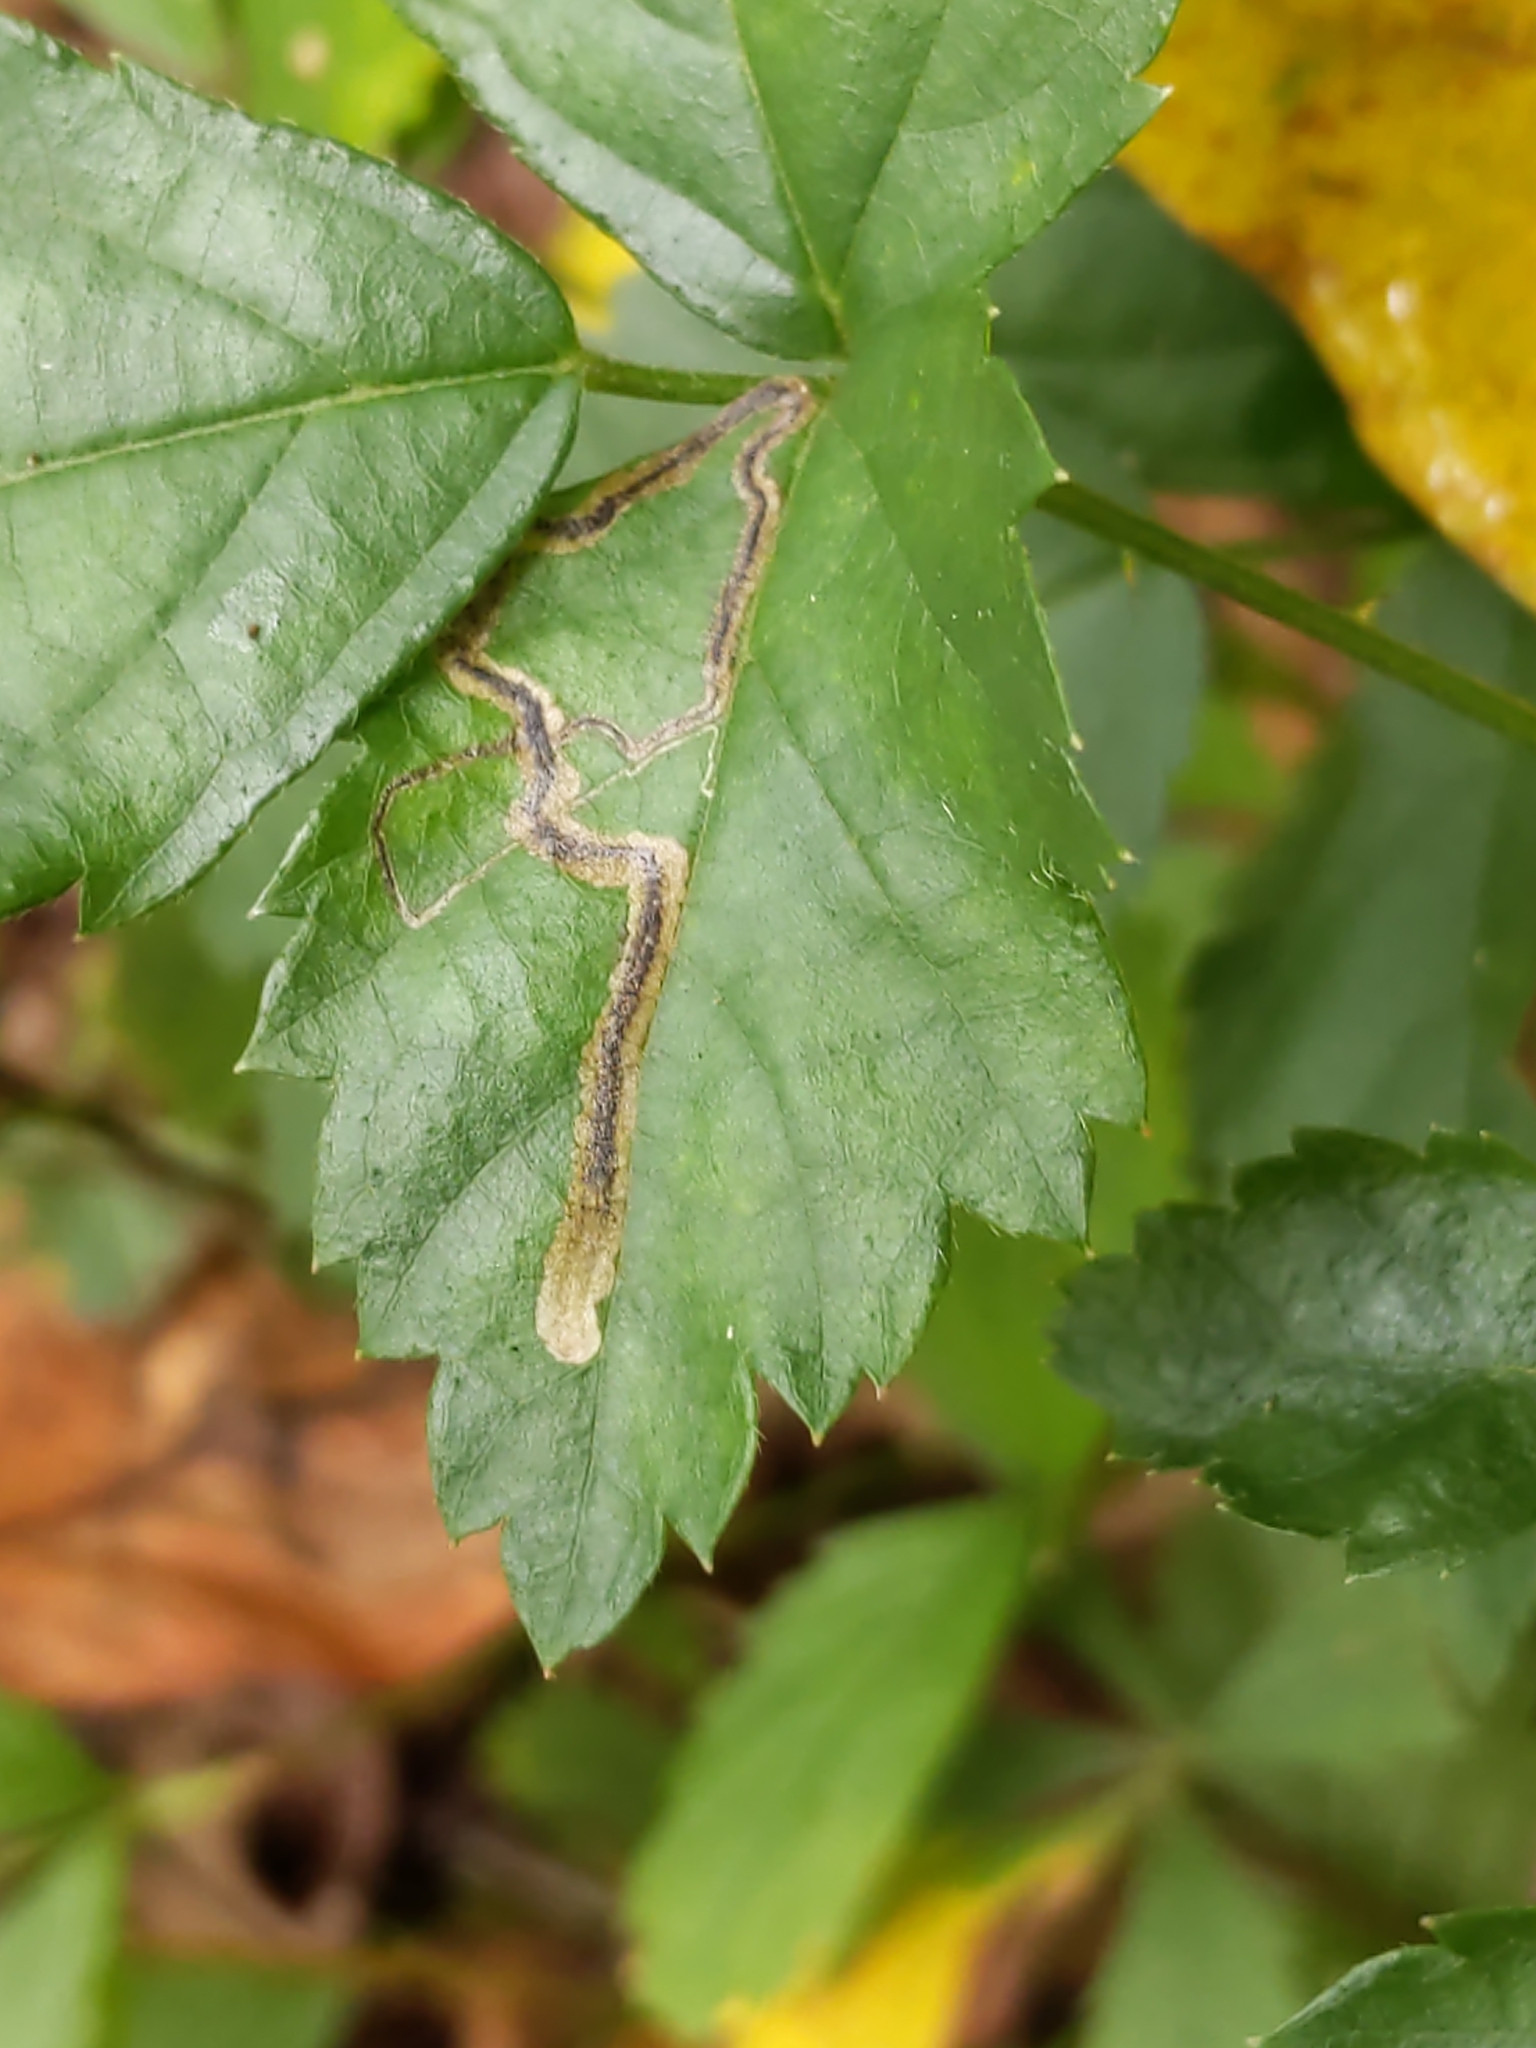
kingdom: Animalia
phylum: Arthropoda
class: Insecta
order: Lepidoptera
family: Nepticulidae
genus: Stigmella
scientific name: Stigmella villosella
